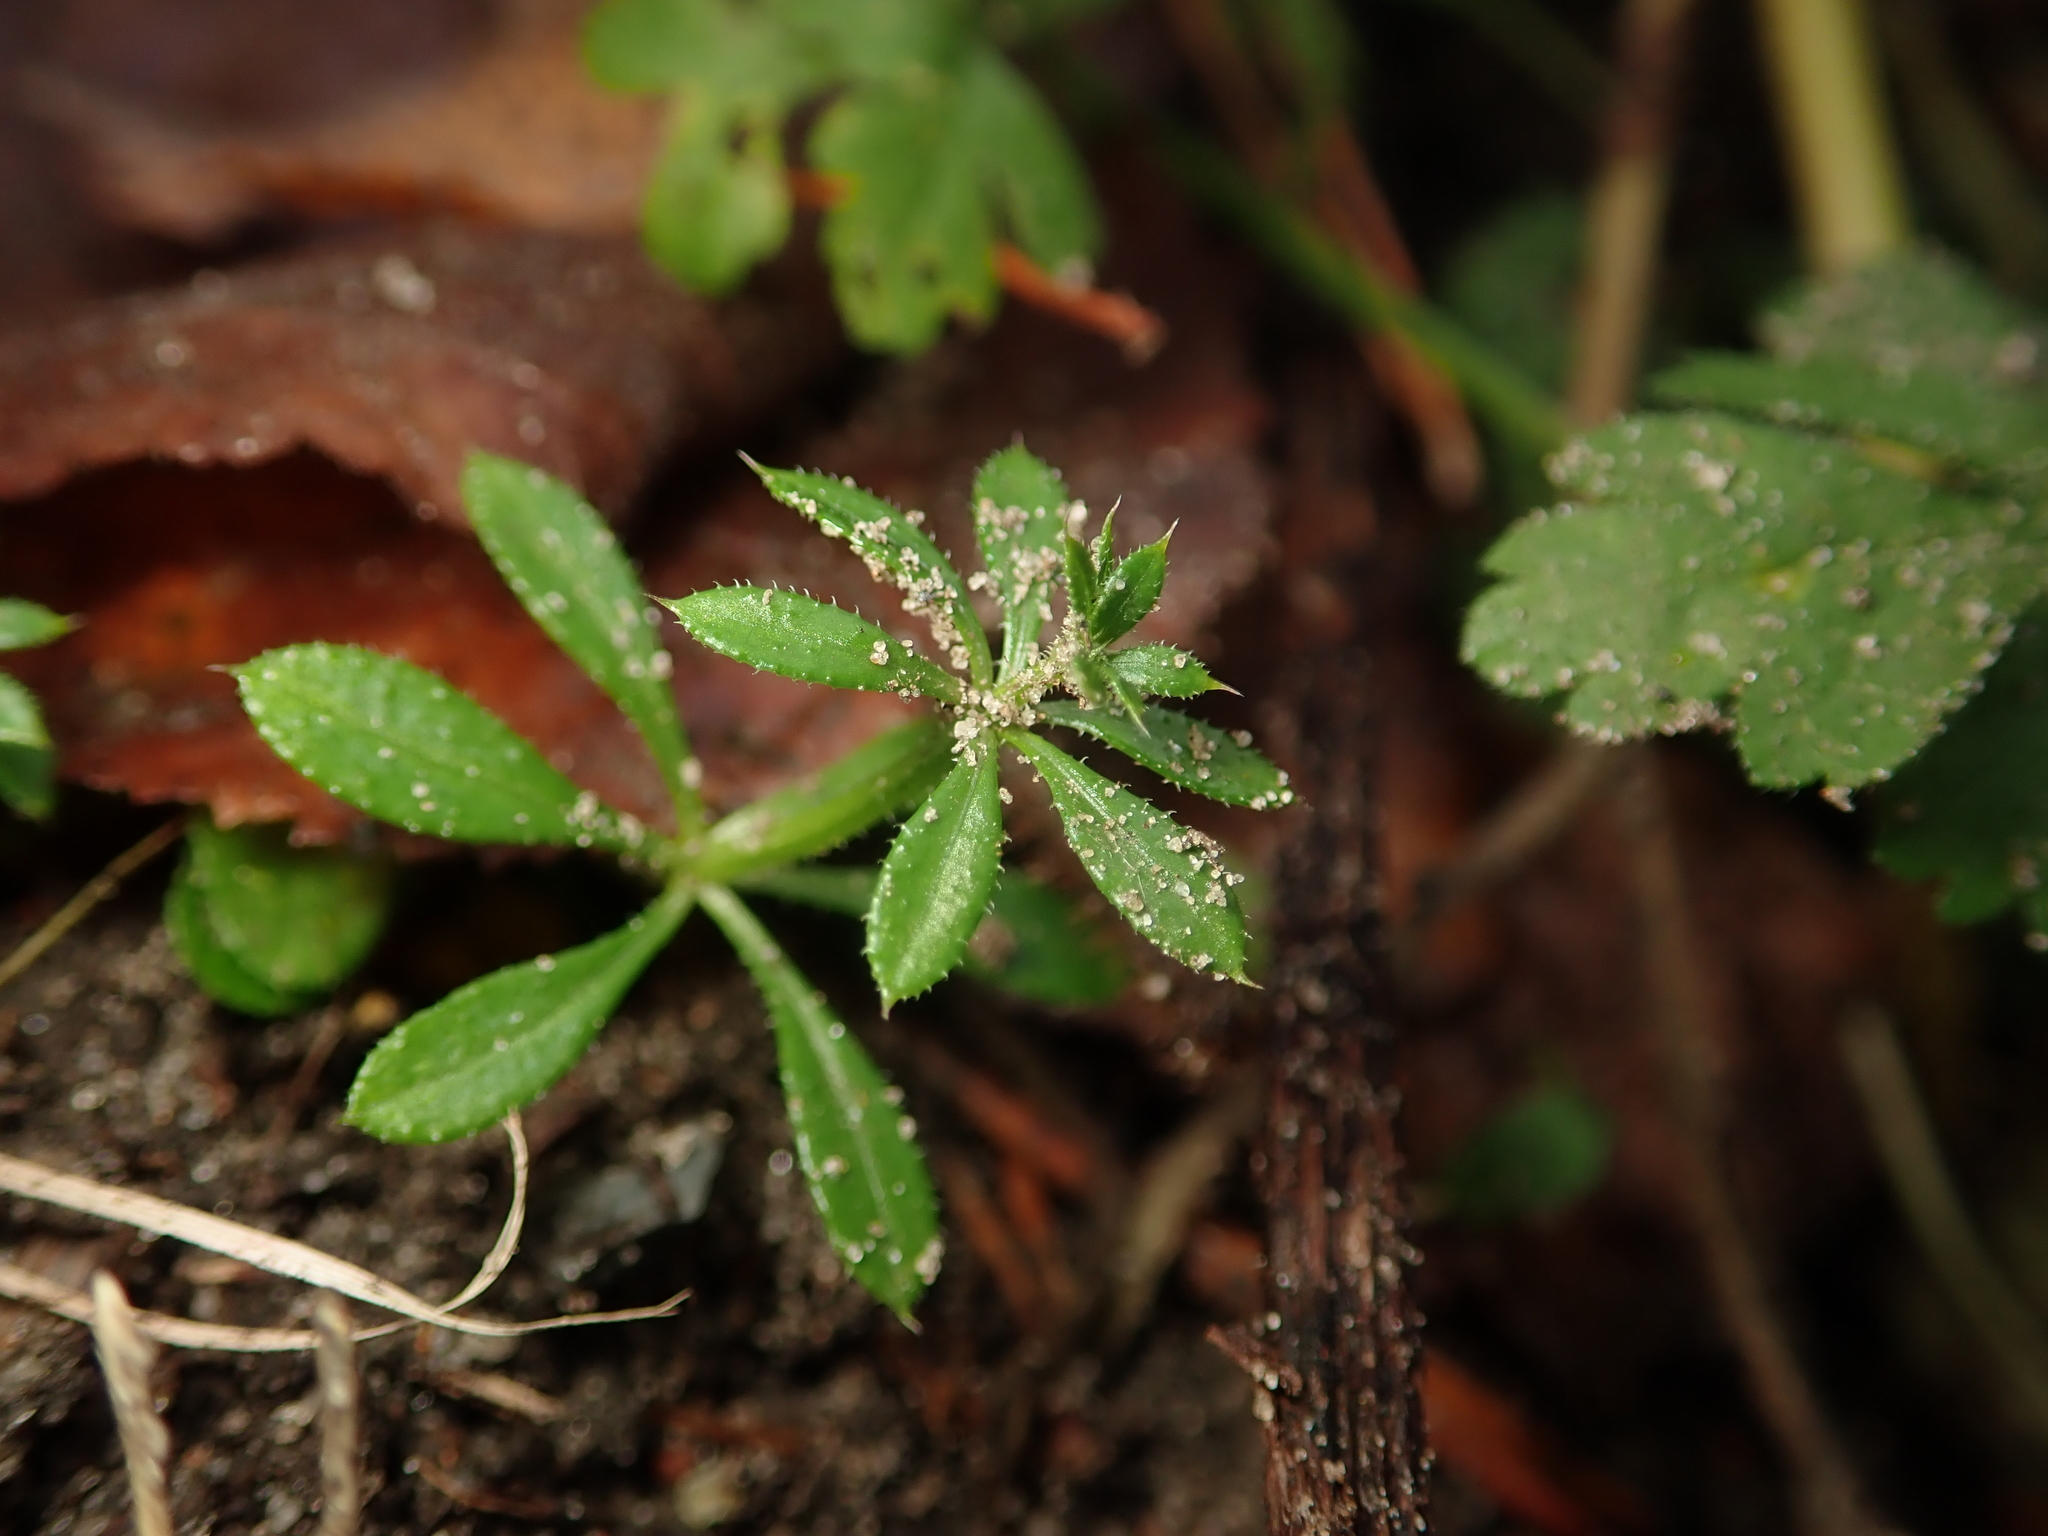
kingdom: Plantae
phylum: Tracheophyta
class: Magnoliopsida
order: Gentianales
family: Rubiaceae
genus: Galium
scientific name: Galium aparine
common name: Cleavers
